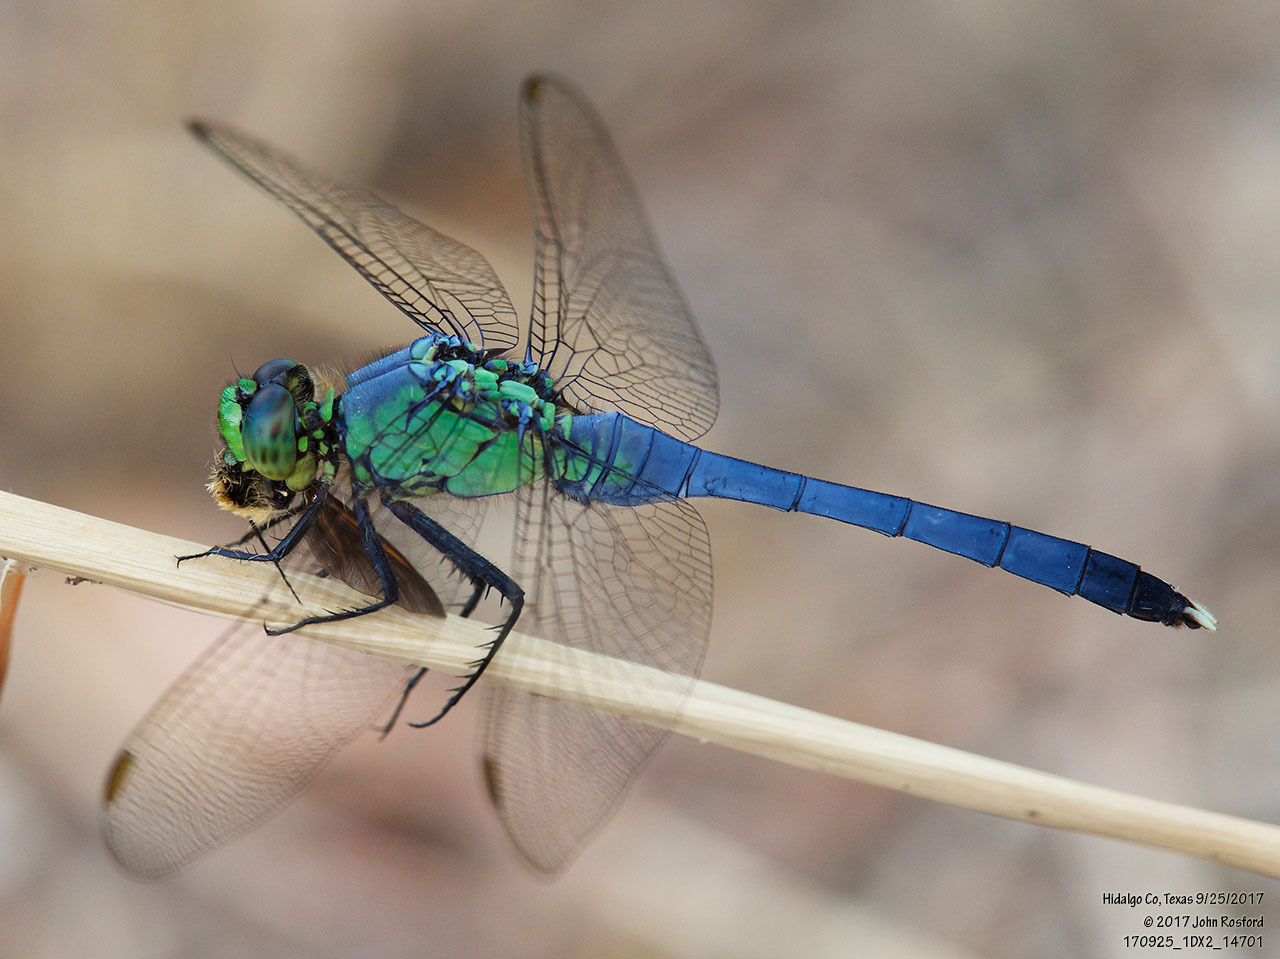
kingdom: Animalia
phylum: Arthropoda
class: Insecta
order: Odonata
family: Libellulidae
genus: Erythemis
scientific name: Erythemis simplicicollis
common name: Eastern pondhawk
